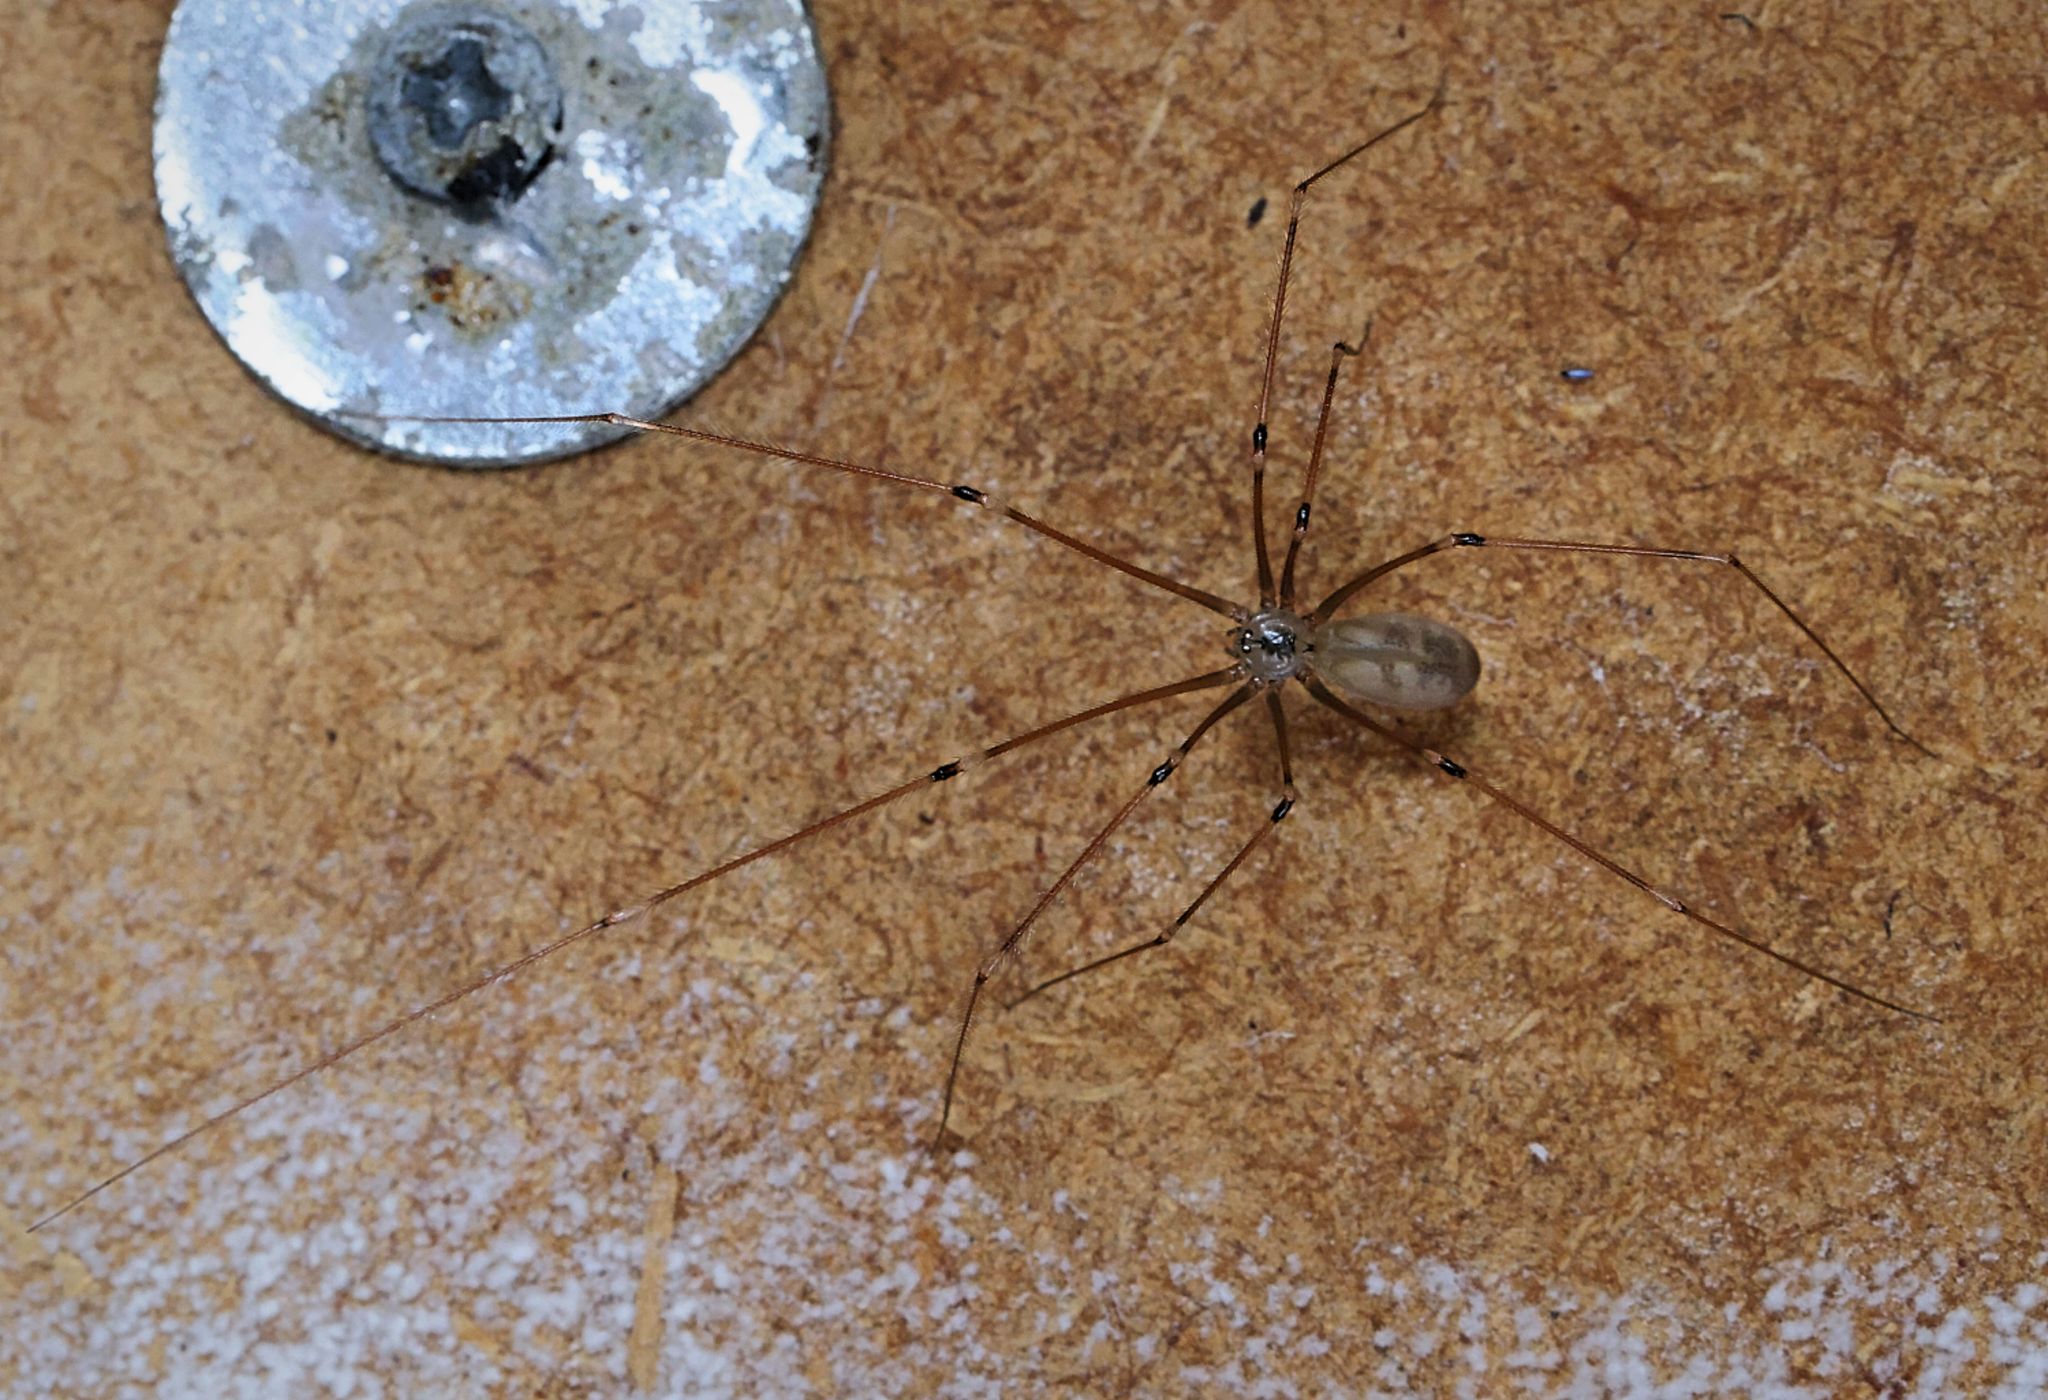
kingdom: Animalia
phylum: Arthropoda
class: Arachnida
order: Araneae
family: Pholcidae
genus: Pholcus
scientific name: Pholcus phalangioides
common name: Longbodied cellar spider
